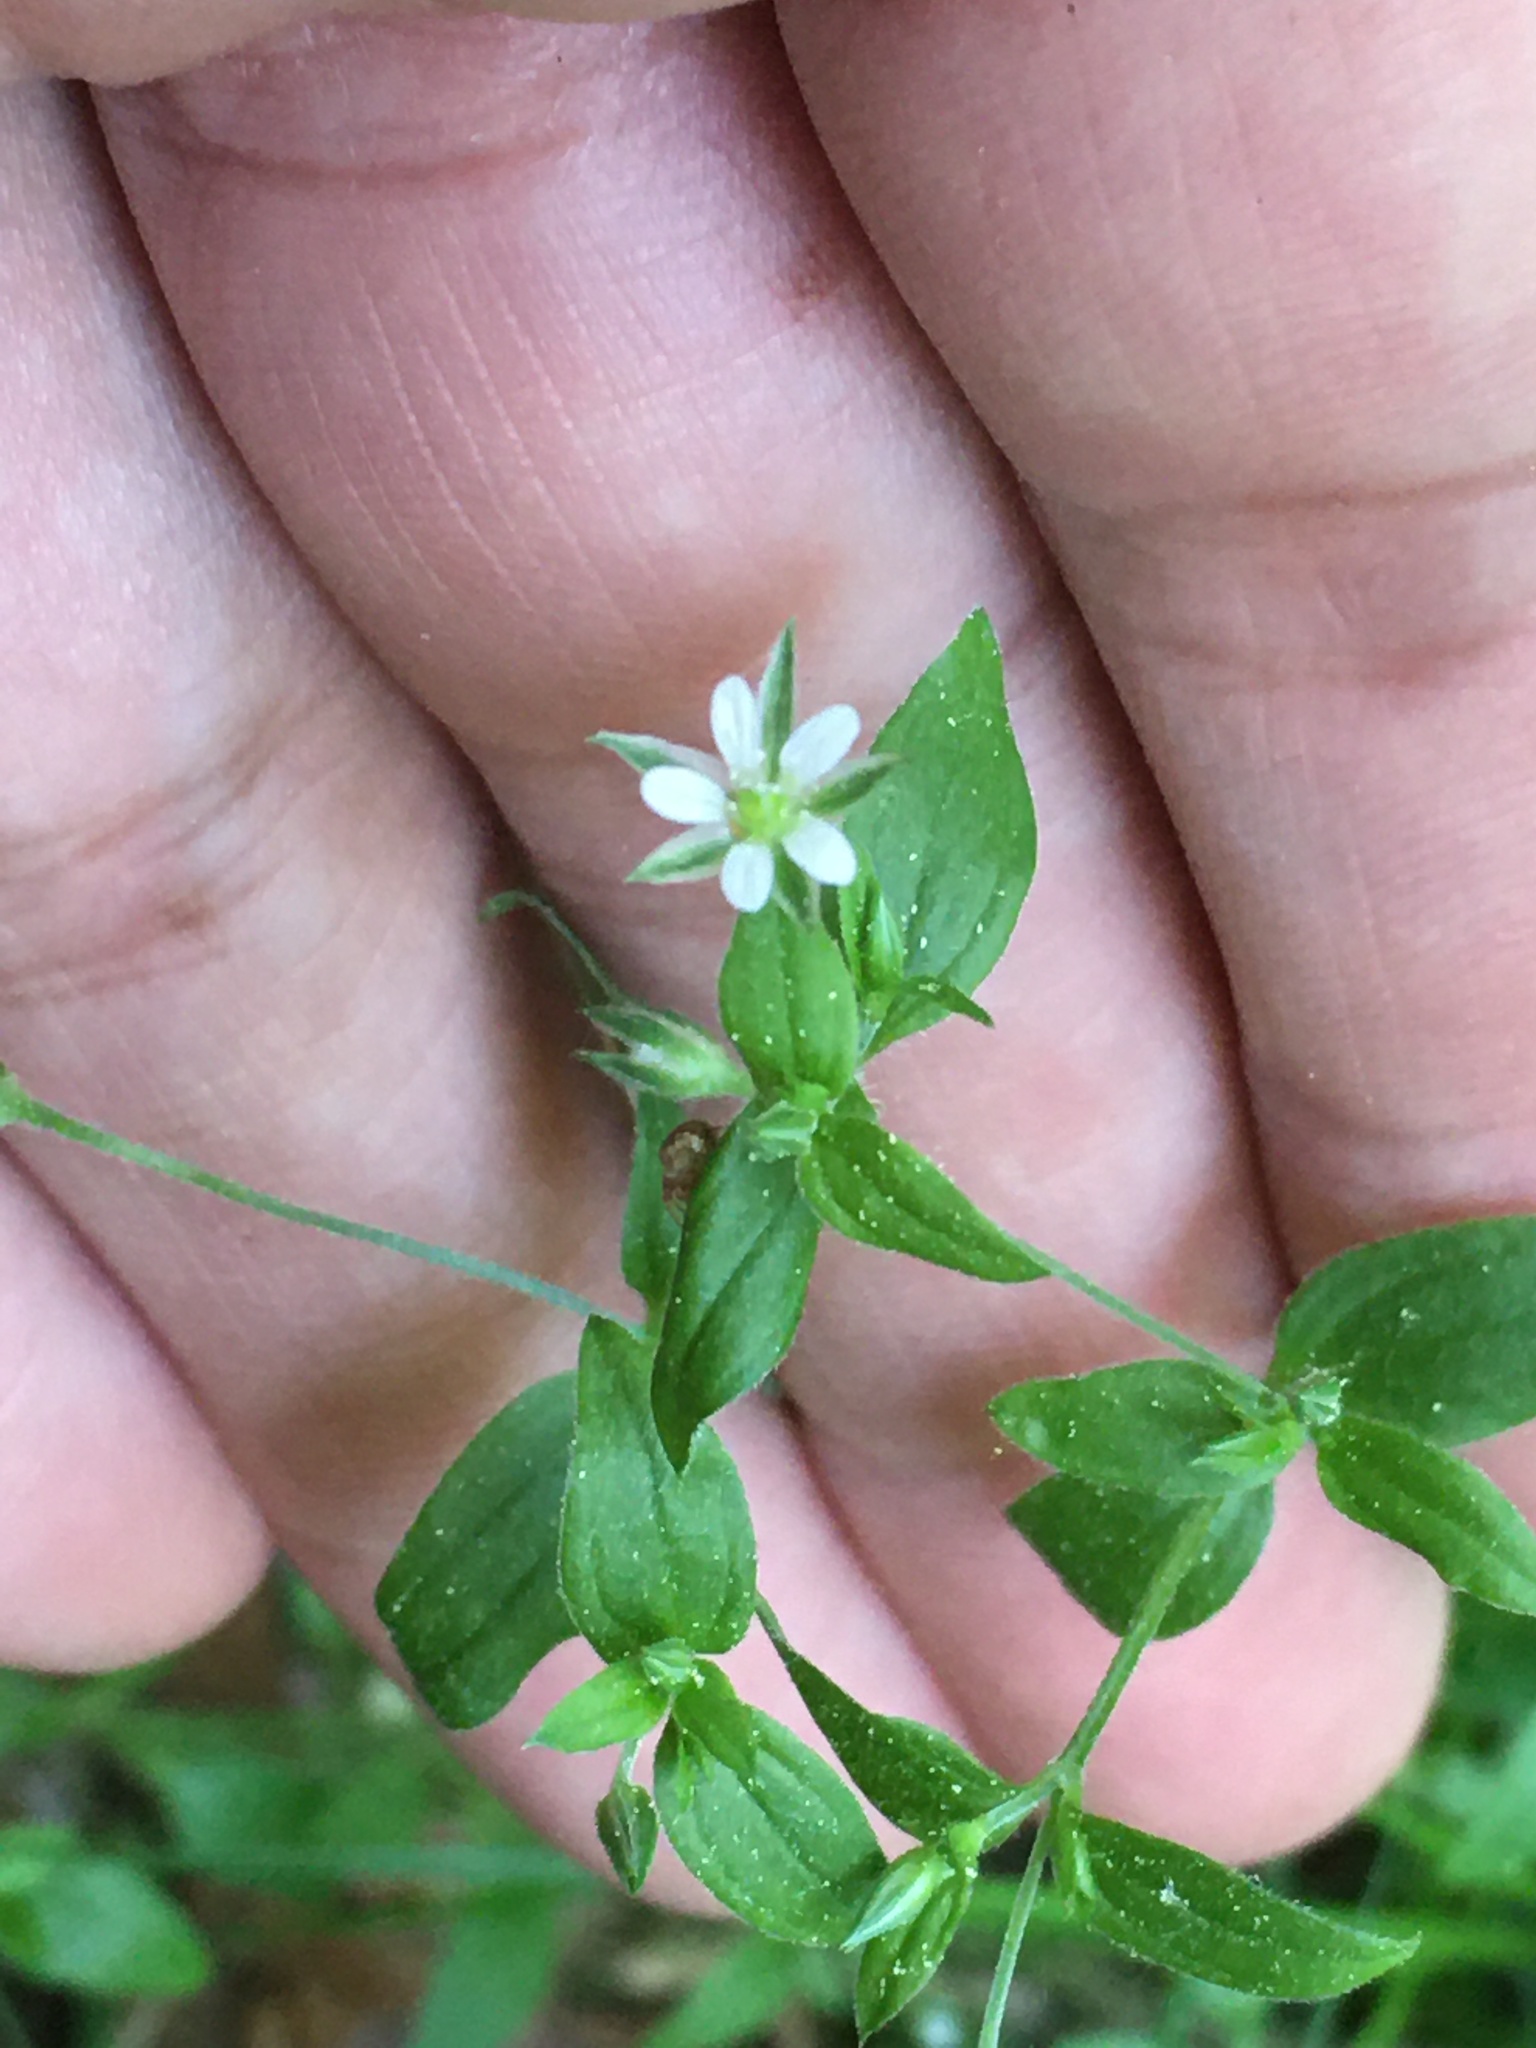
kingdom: Plantae
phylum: Tracheophyta
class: Magnoliopsida
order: Caryophyllales
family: Caryophyllaceae
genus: Moehringia
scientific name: Moehringia trinervia
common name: Three-nerved sandwort
